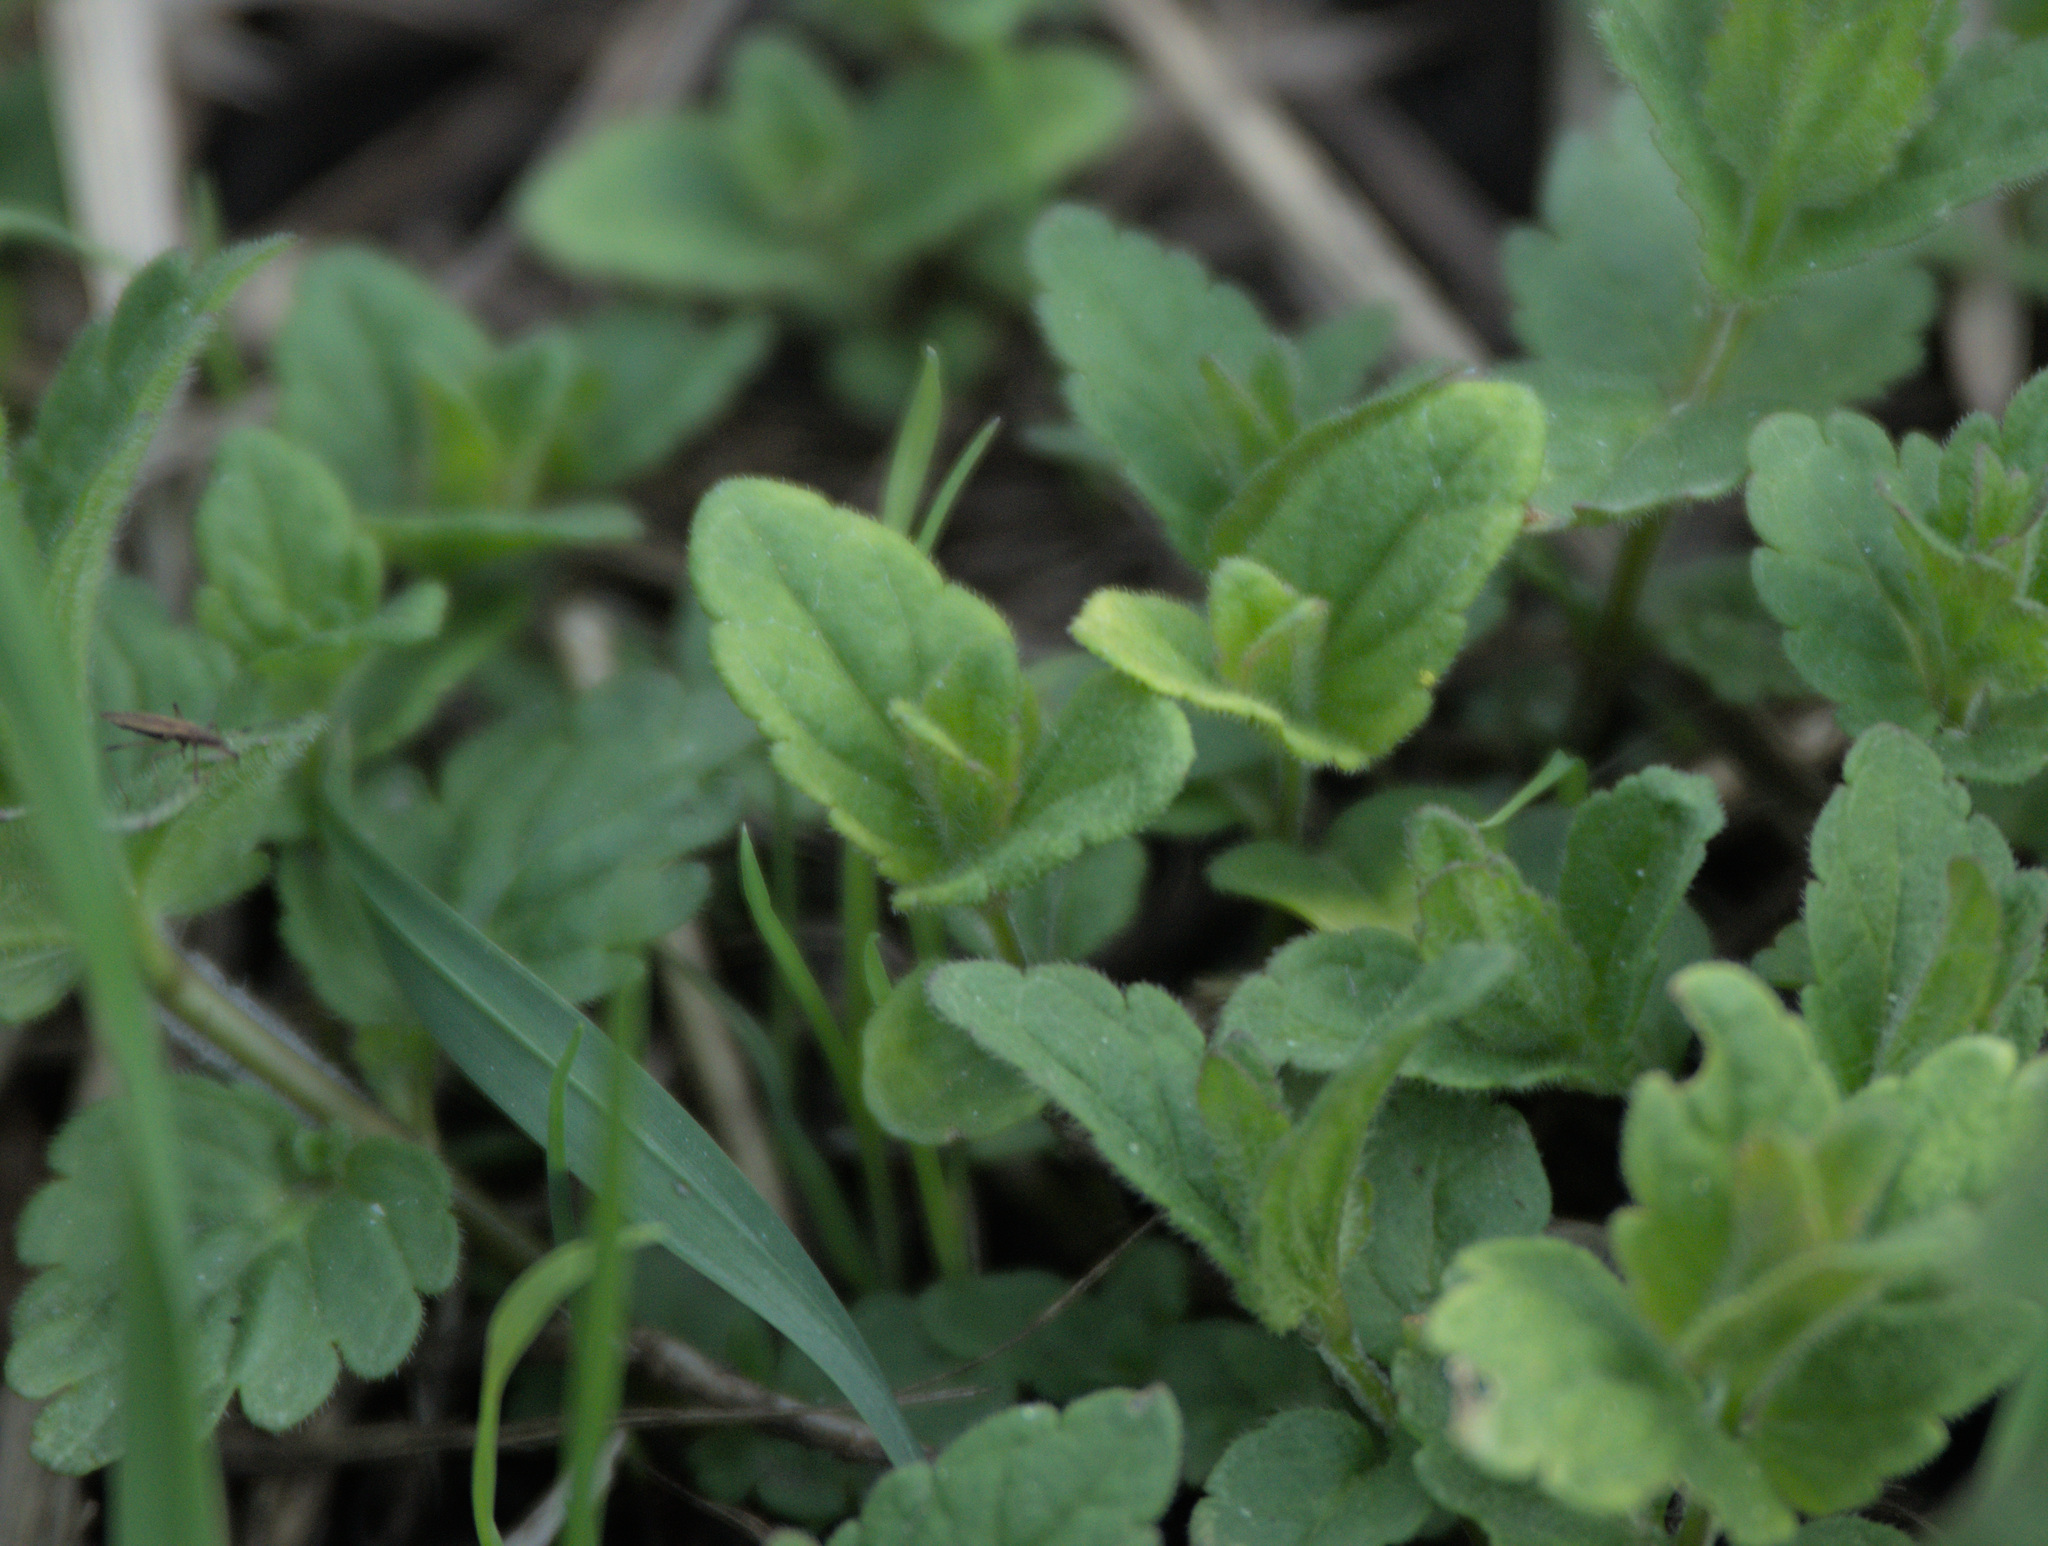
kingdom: Plantae
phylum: Tracheophyta
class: Magnoliopsida
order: Lamiales
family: Plantaginaceae
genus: Veronica
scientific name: Veronica chamaedrys
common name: Germander speedwell
